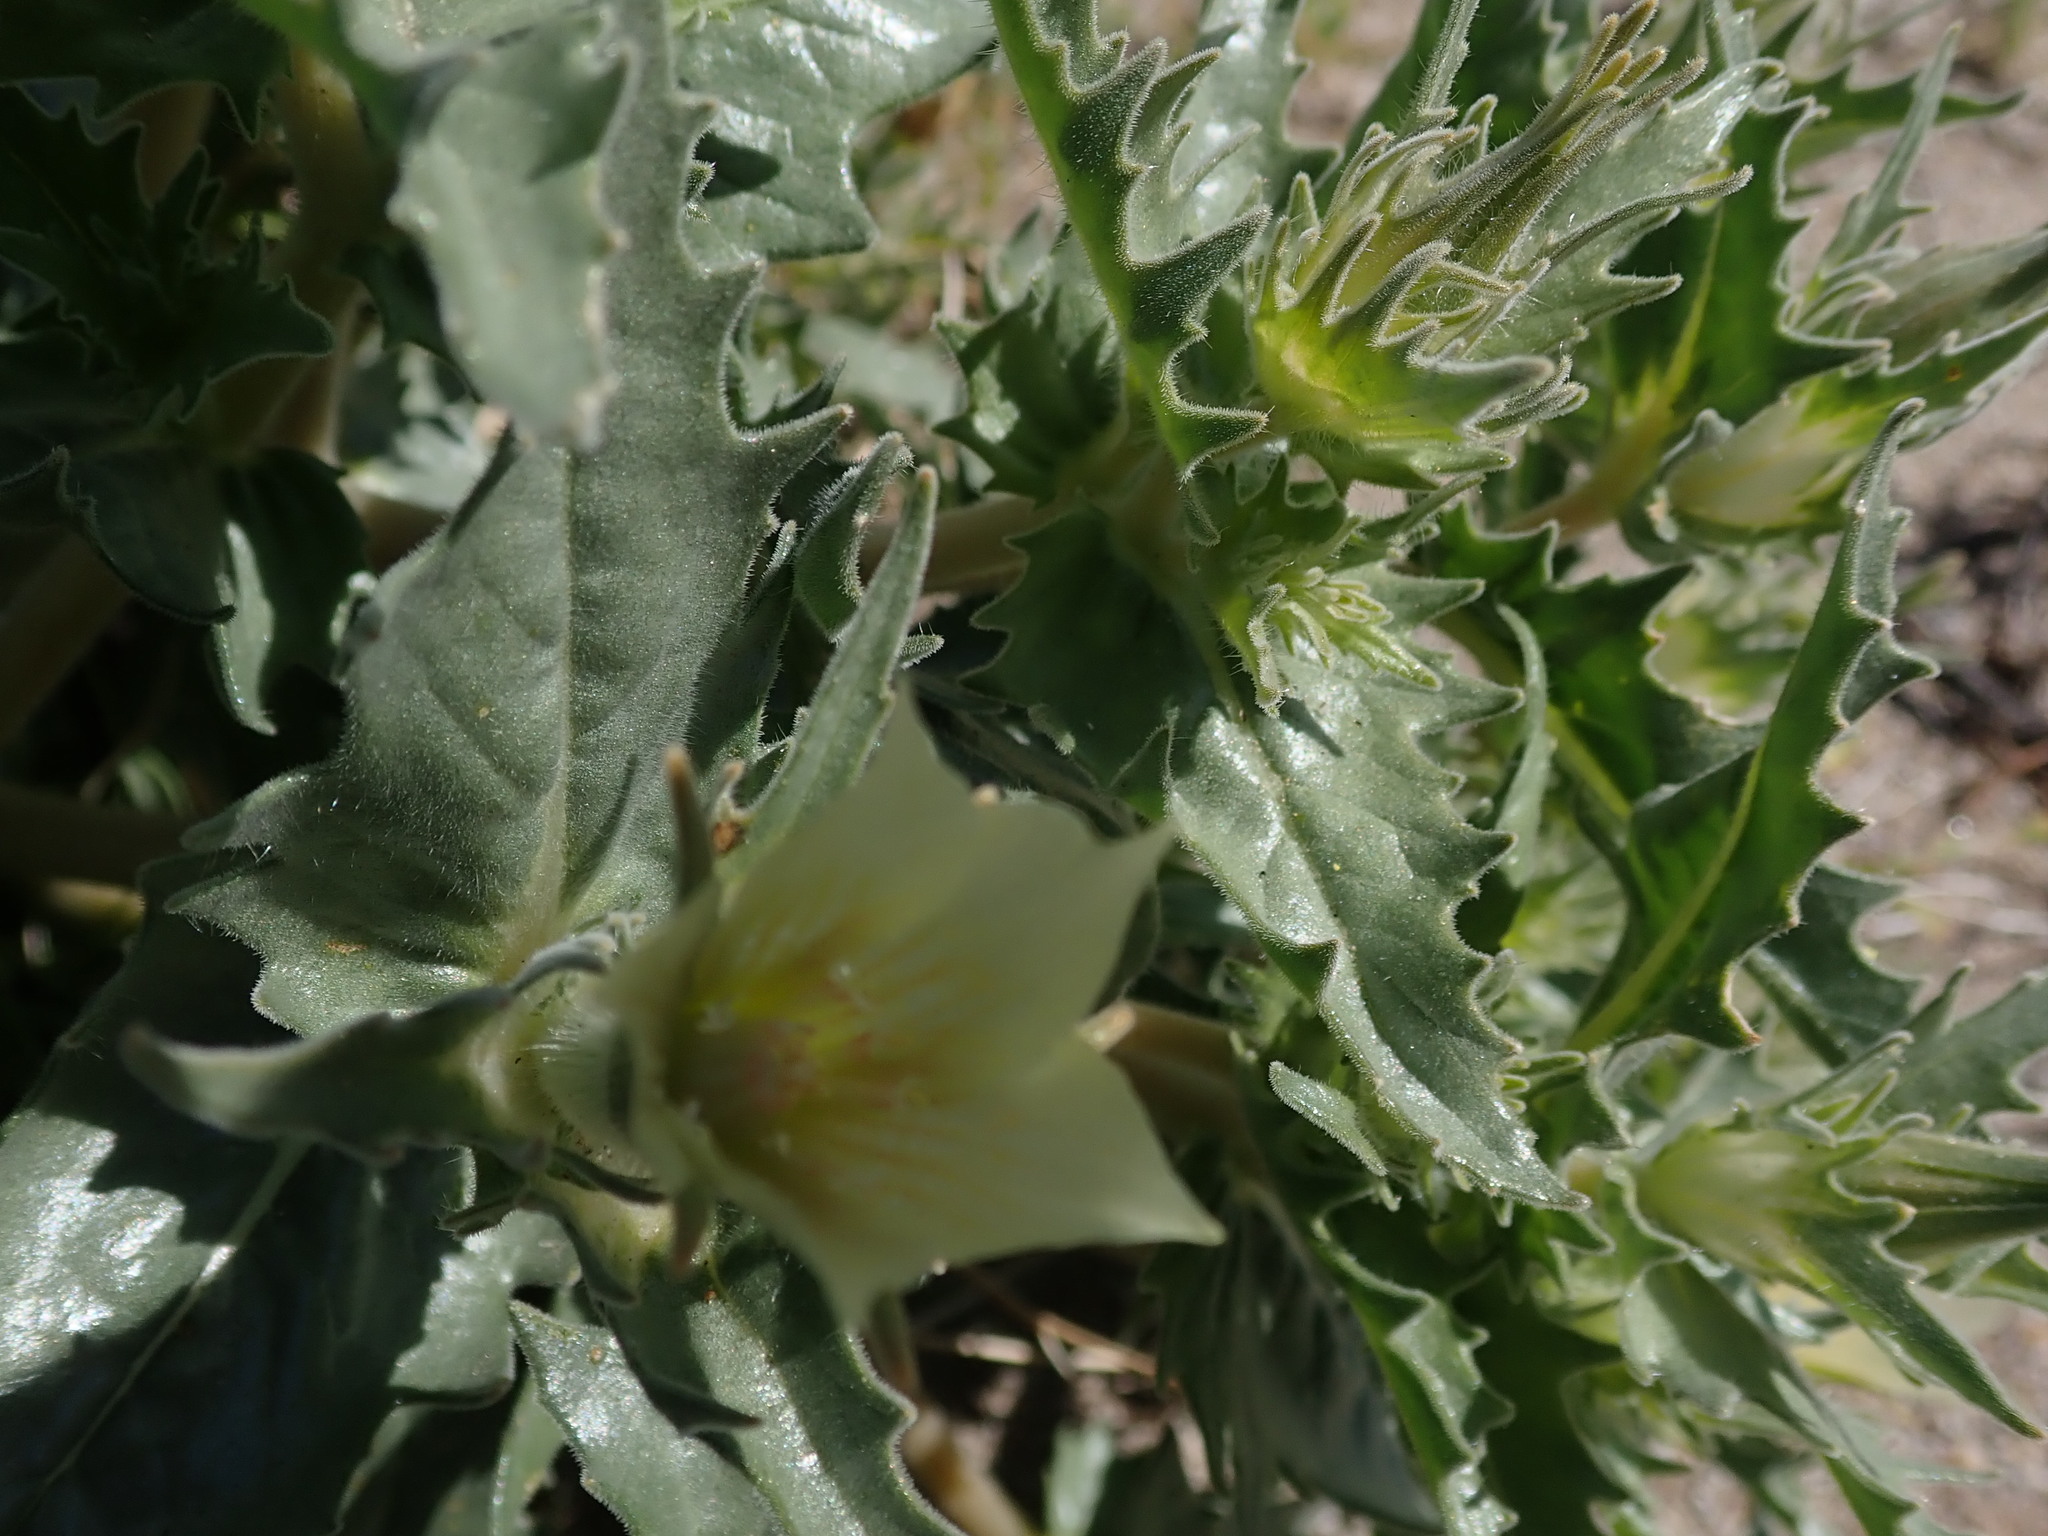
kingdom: Plantae
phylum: Tracheophyta
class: Magnoliopsida
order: Cornales
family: Loasaceae
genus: Mentzelia
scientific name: Mentzelia involucrata
